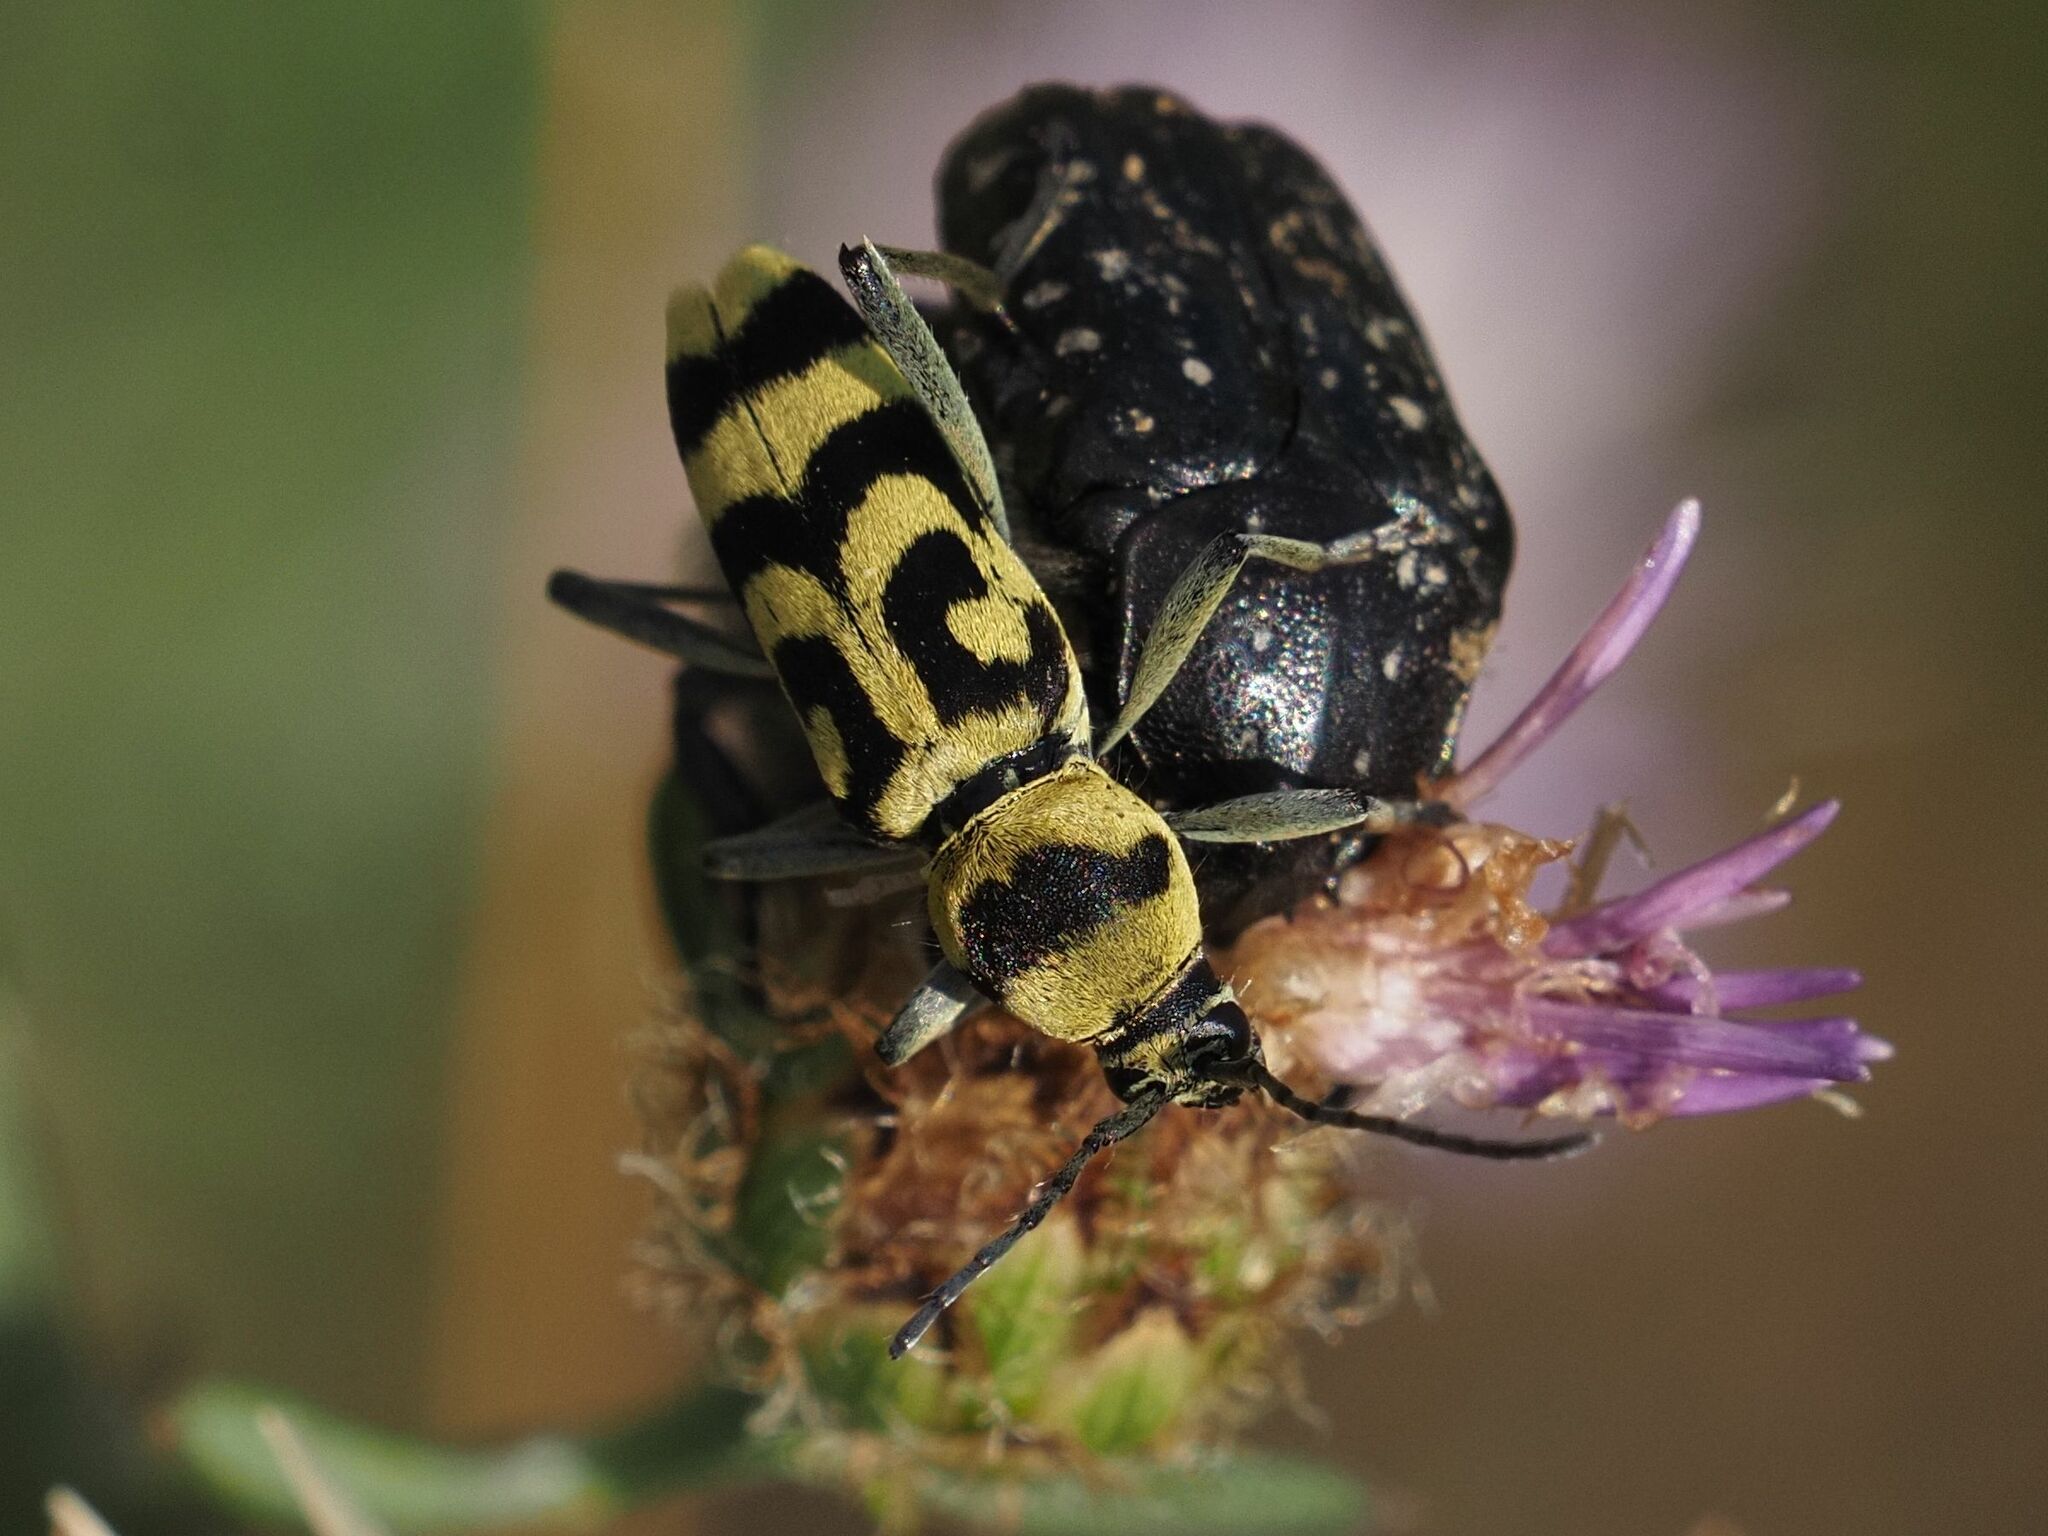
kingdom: Animalia
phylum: Arthropoda
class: Insecta
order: Coleoptera
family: Cerambycidae
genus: Chlorophorus
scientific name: Chlorophorus varius
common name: Grape wood borer
